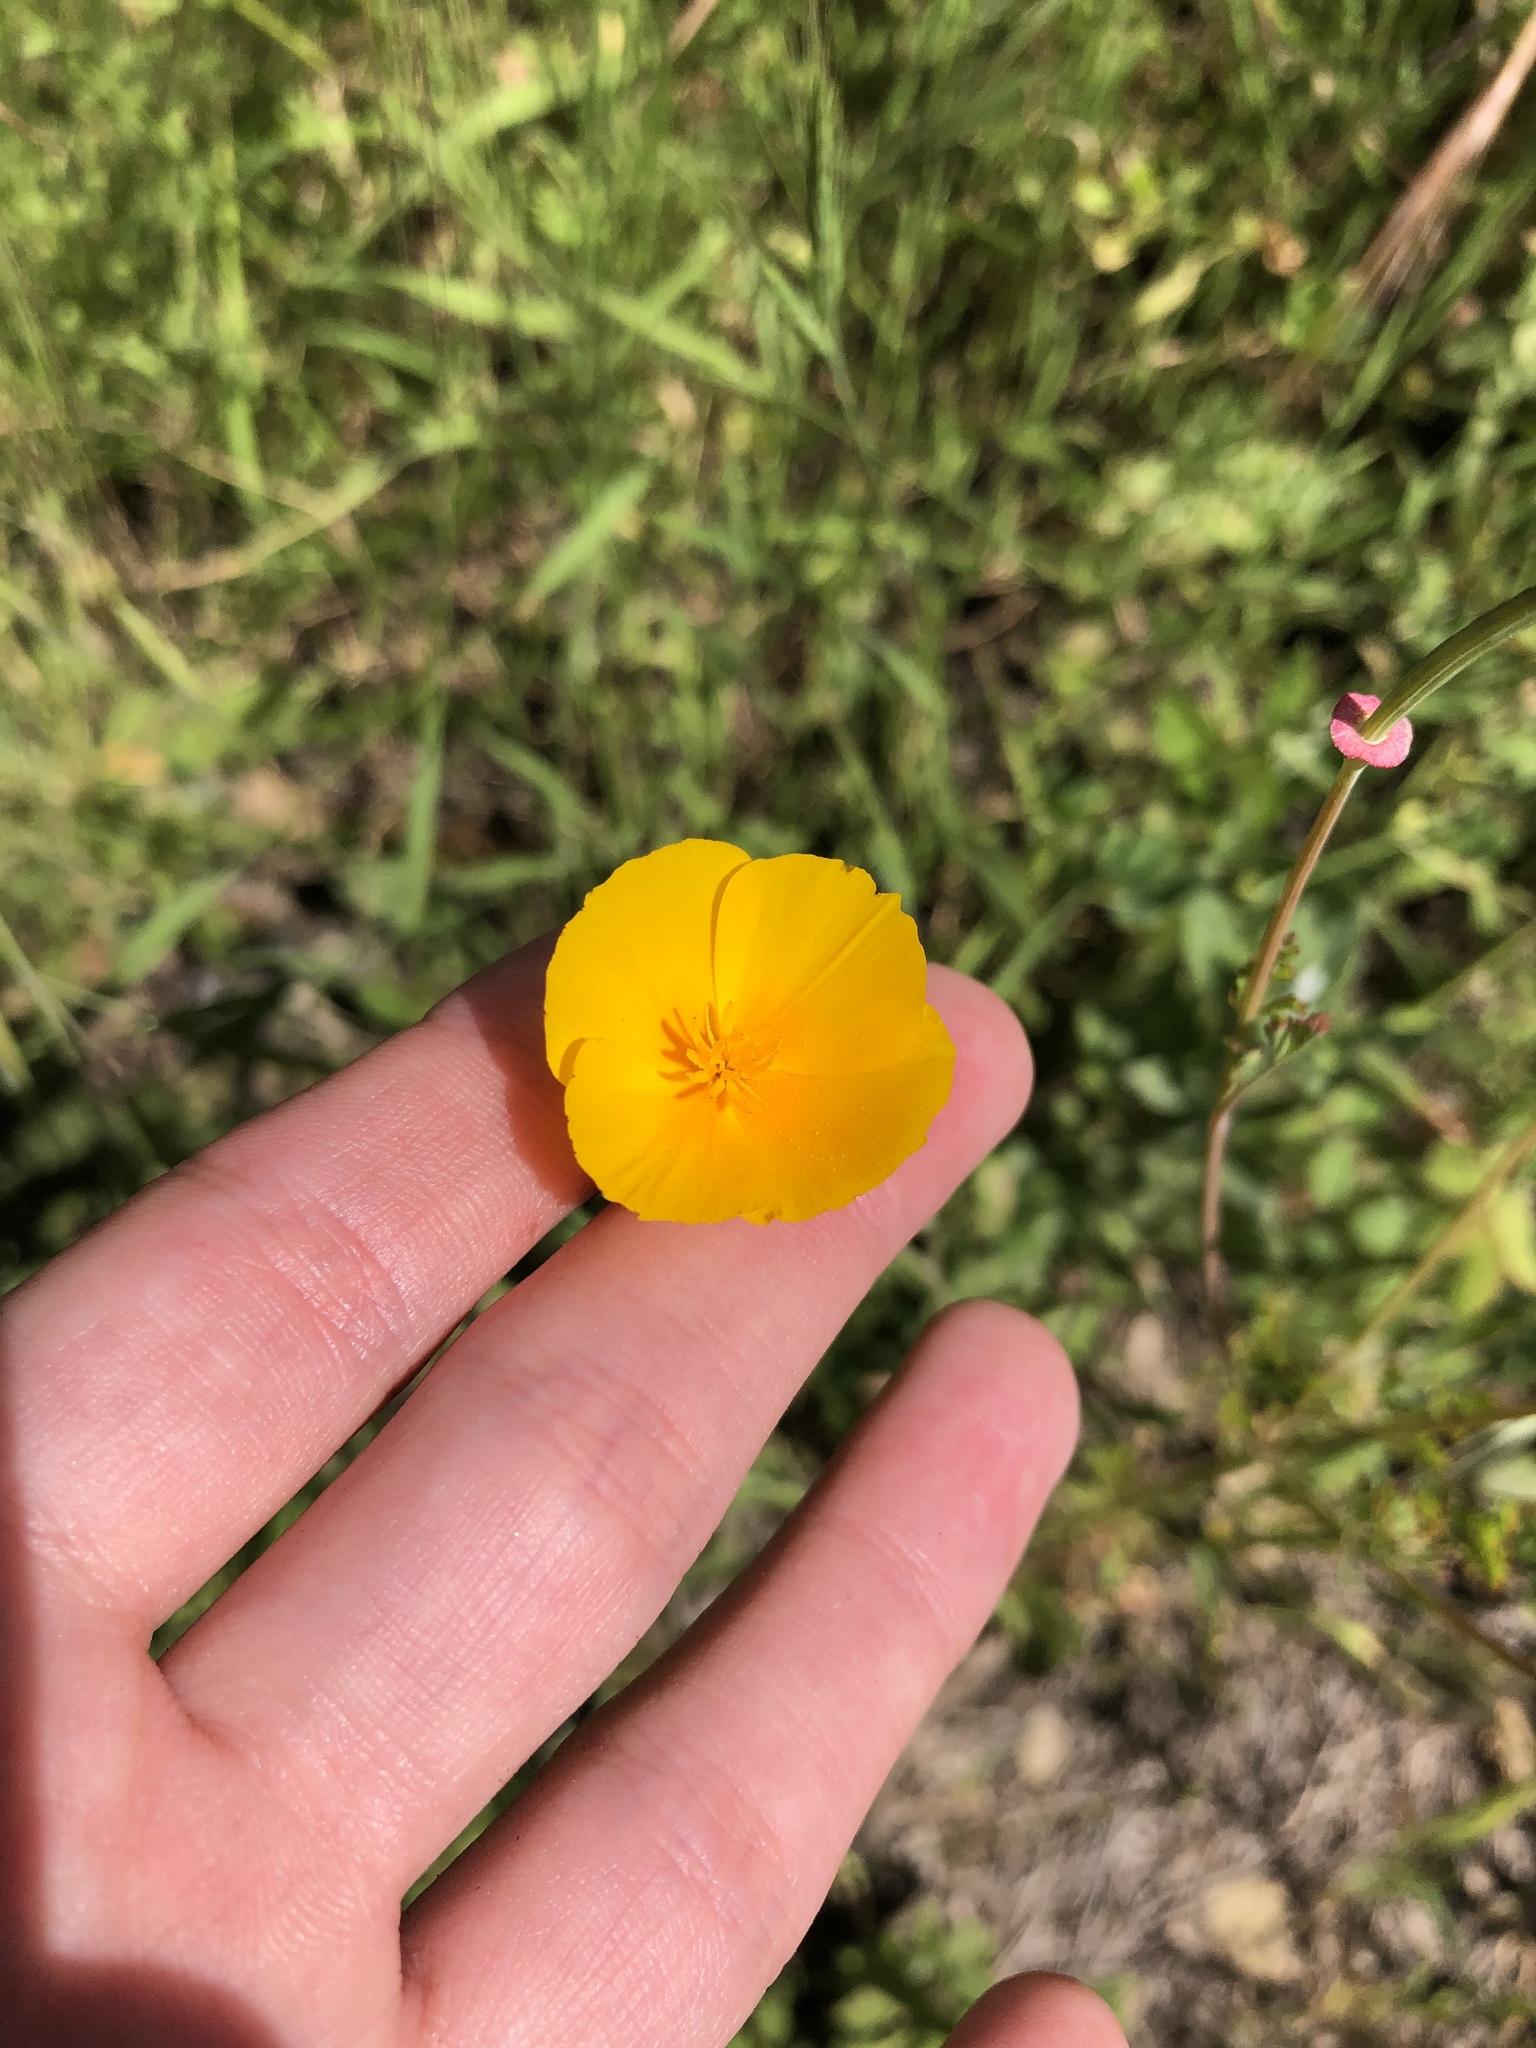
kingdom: Plantae
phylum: Tracheophyta
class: Magnoliopsida
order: Ranunculales
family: Papaveraceae
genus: Eschscholzia
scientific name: Eschscholzia californica
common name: California poppy
